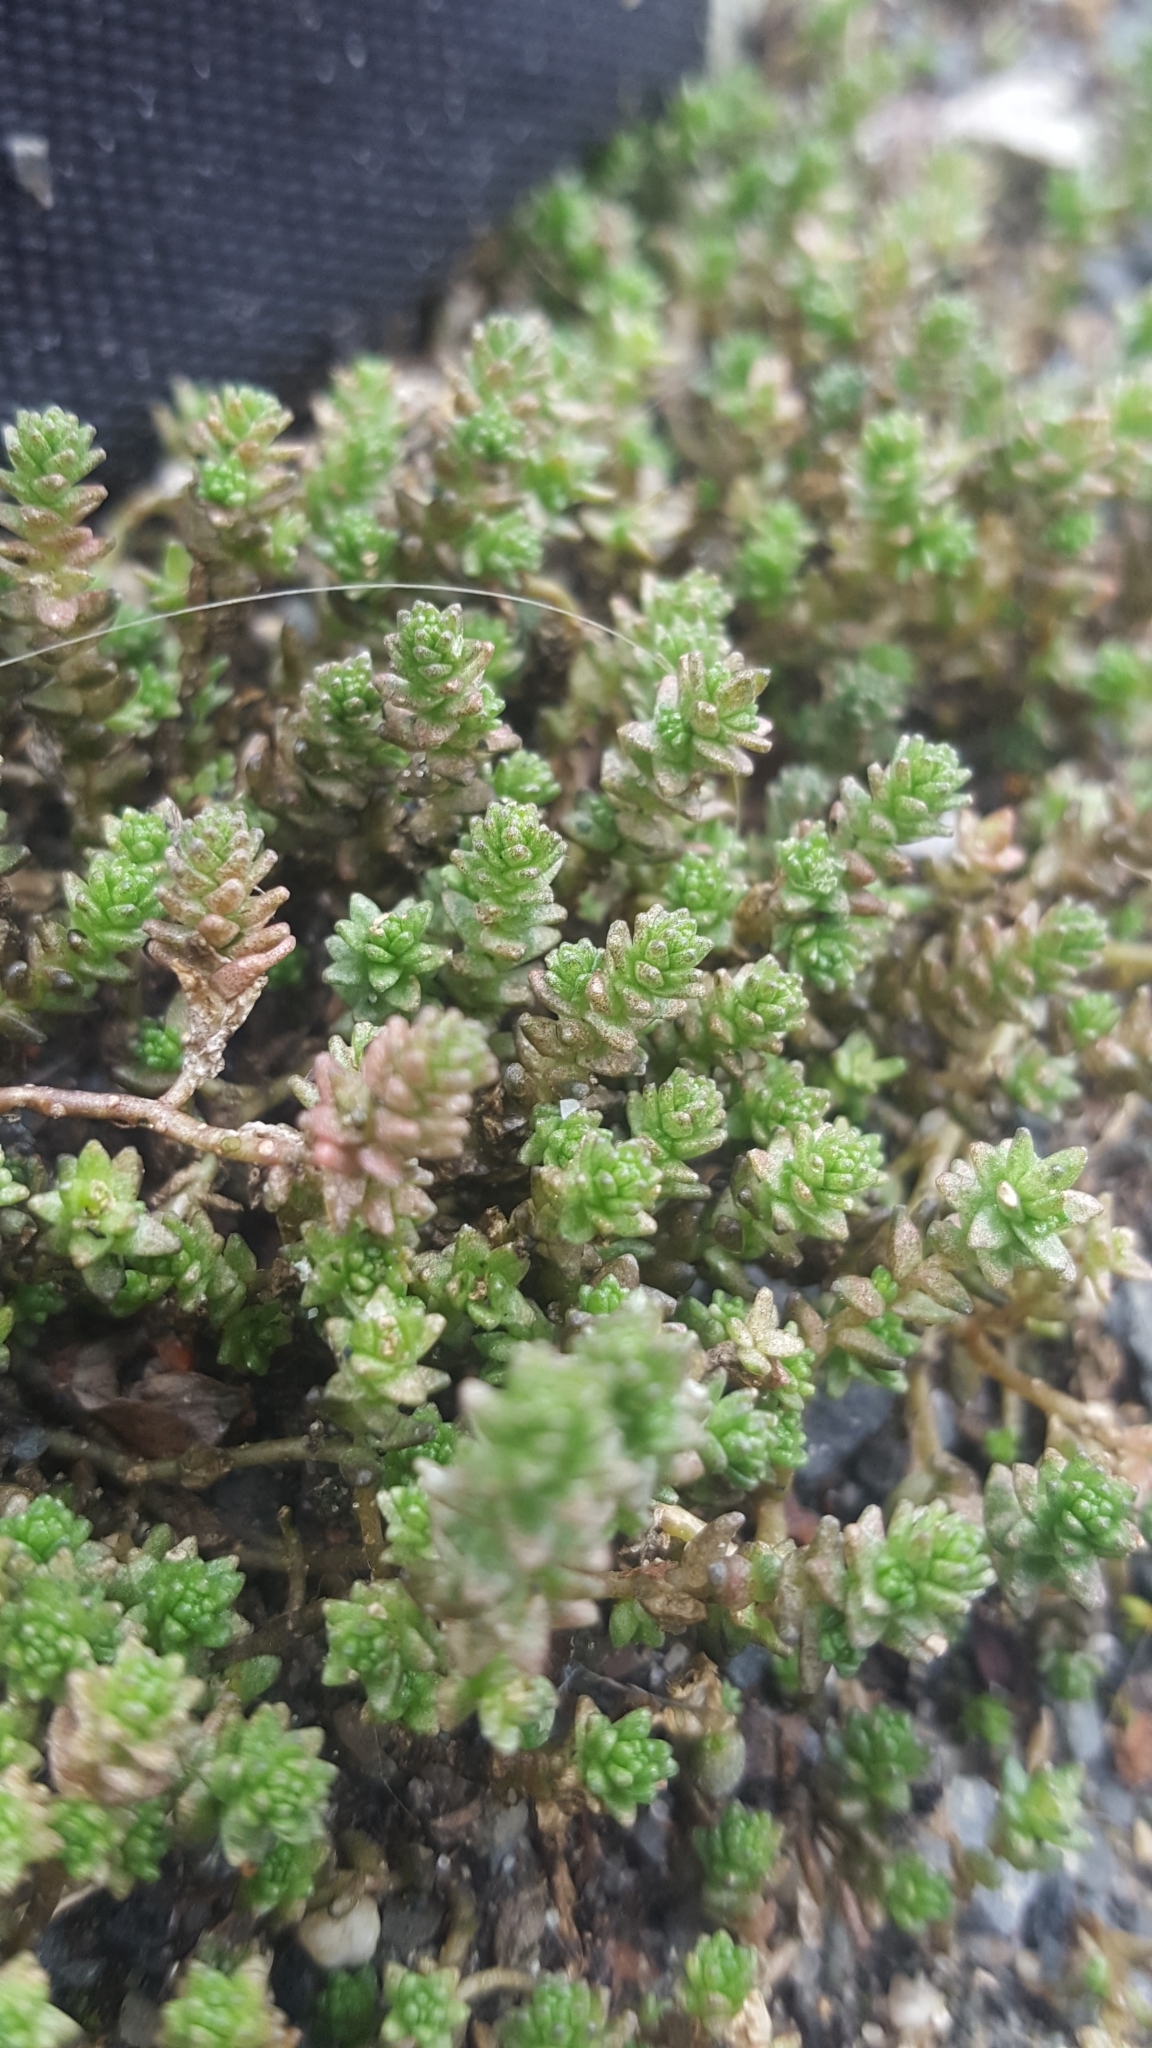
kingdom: Plantae
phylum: Tracheophyta
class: Magnoliopsida
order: Saxifragales
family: Crassulaceae
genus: Sedum
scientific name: Sedum acre
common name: Biting stonecrop
